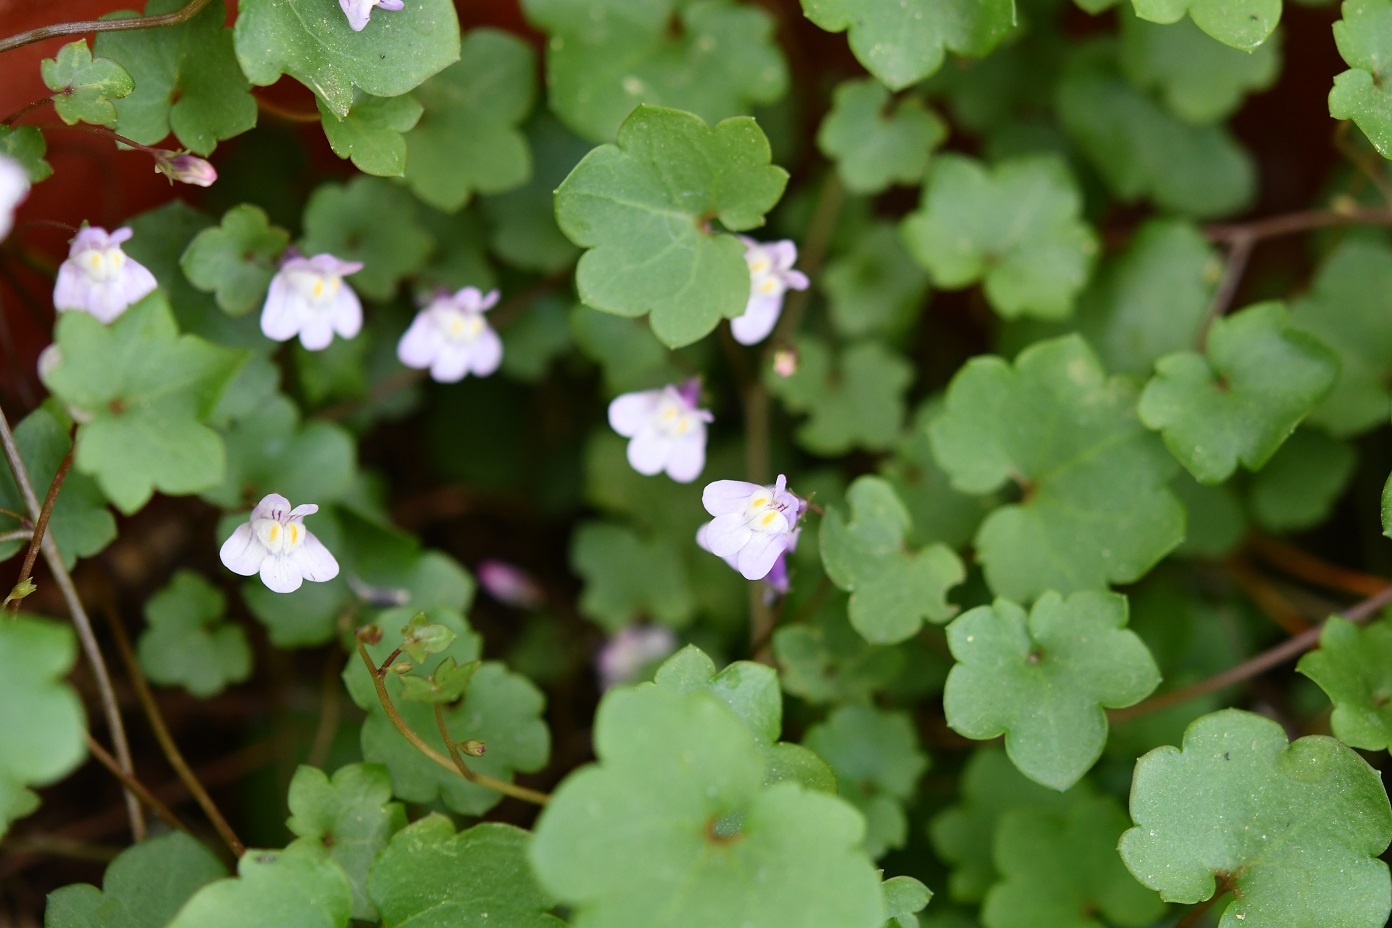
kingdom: Plantae
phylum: Tracheophyta
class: Magnoliopsida
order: Lamiales
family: Plantaginaceae
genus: Cymbalaria
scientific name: Cymbalaria muralis
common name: Ivy-leaved toadflax
